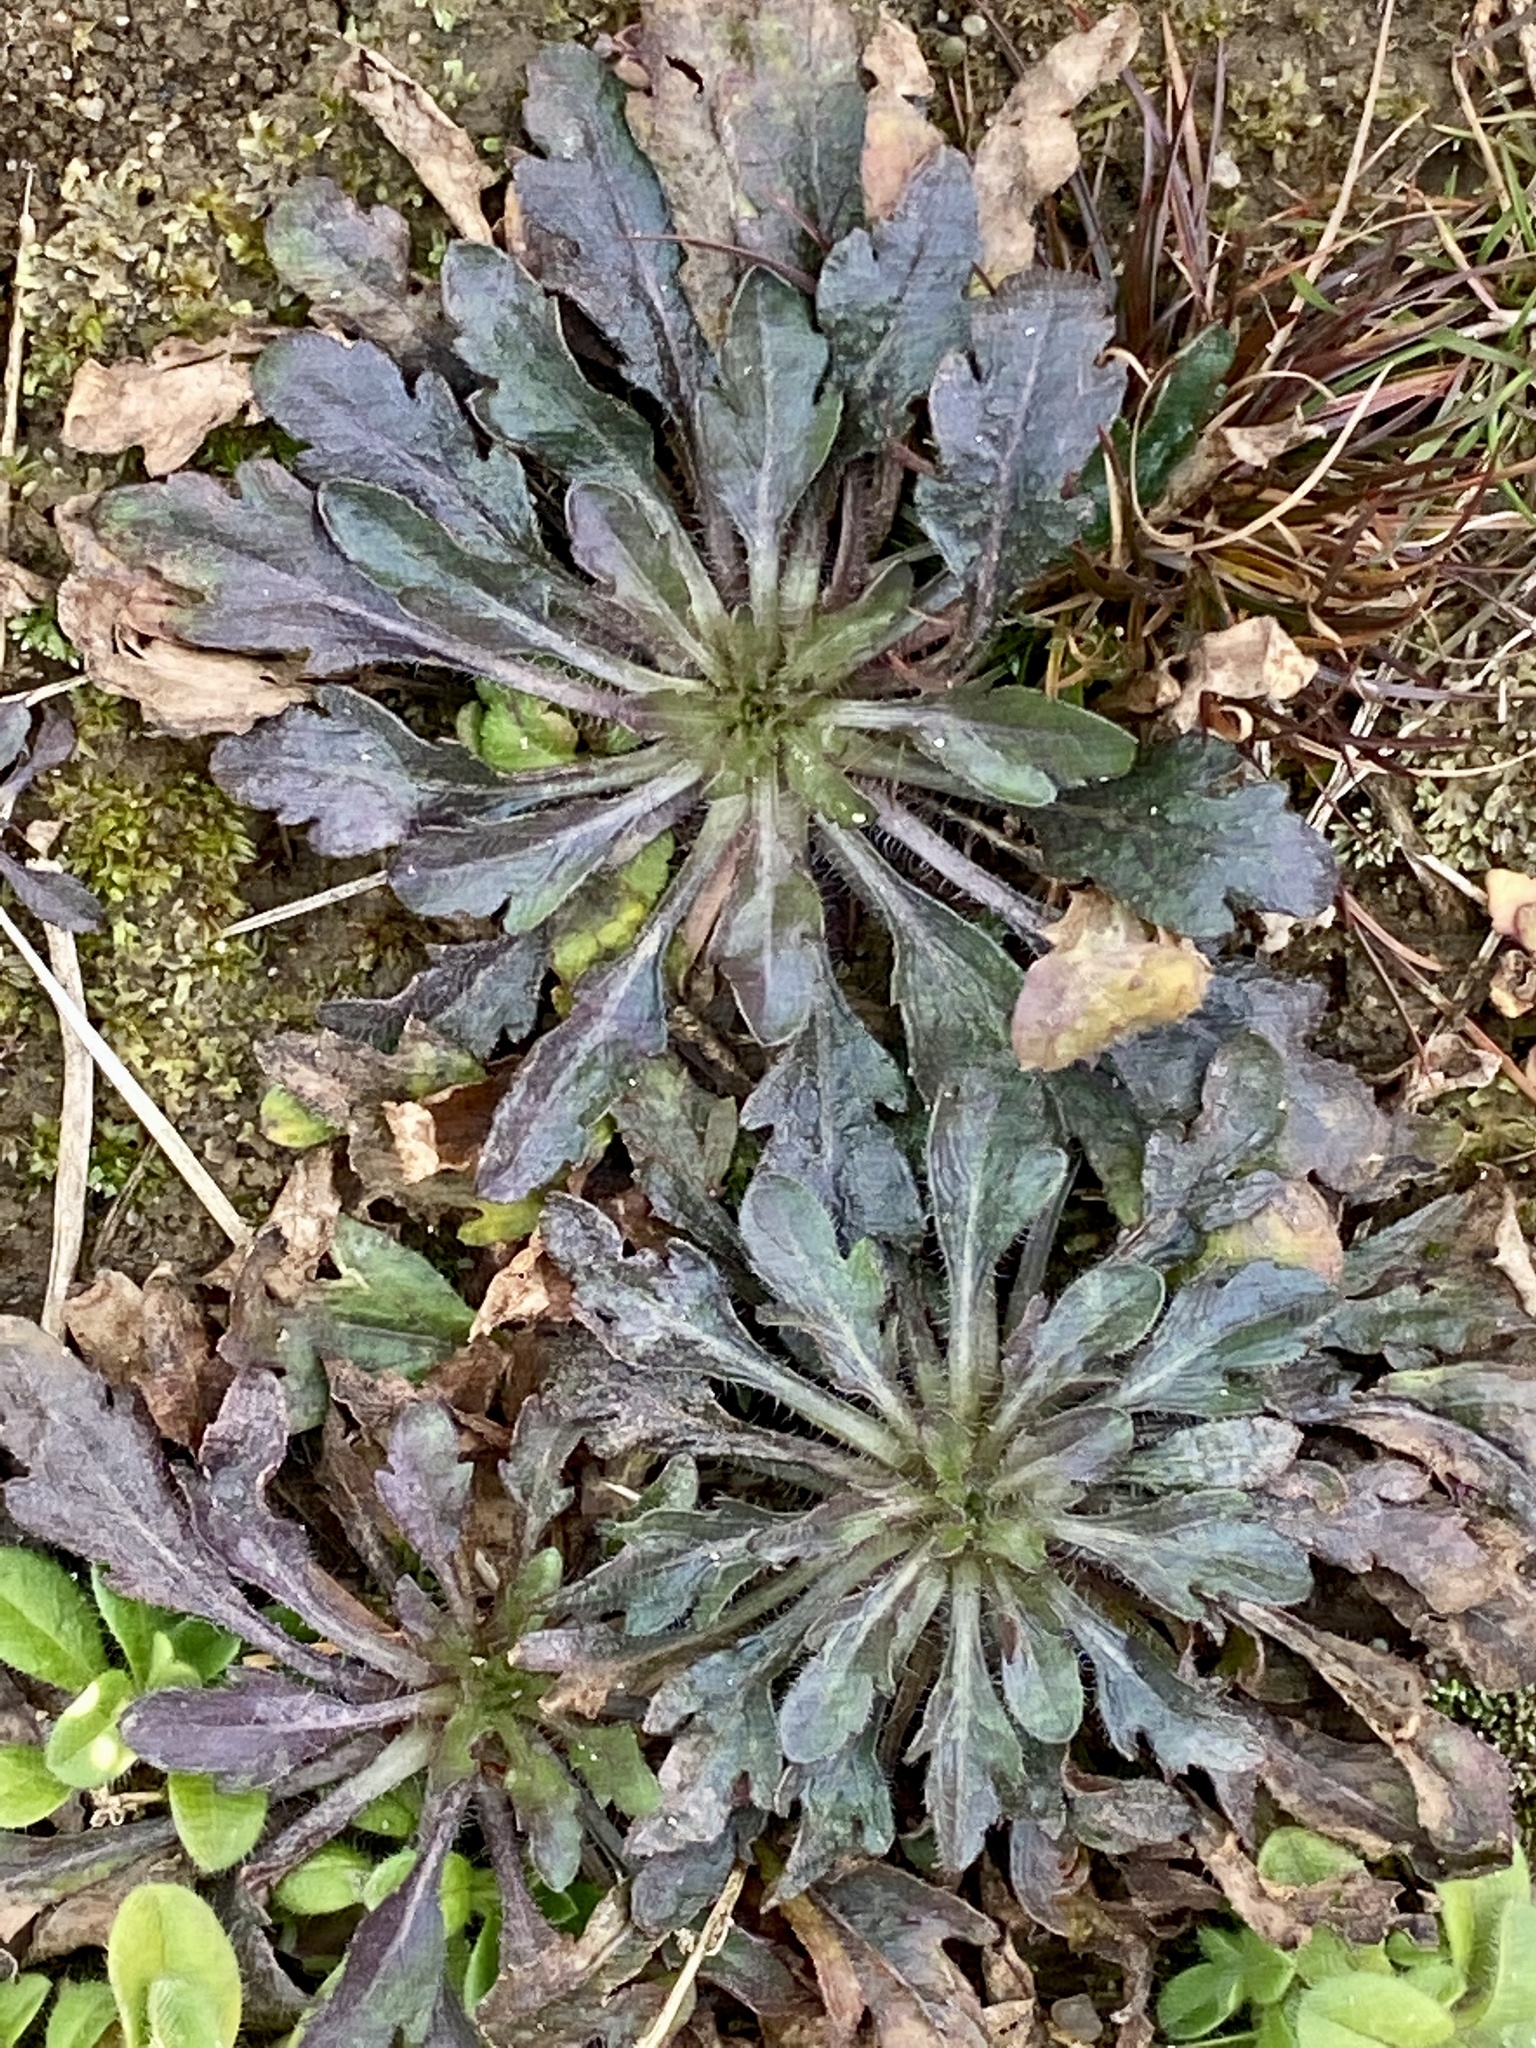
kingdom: Plantae
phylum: Tracheophyta
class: Magnoliopsida
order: Asterales
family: Asteraceae
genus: Erigeron
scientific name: Erigeron canadensis
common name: Canadian fleabane
